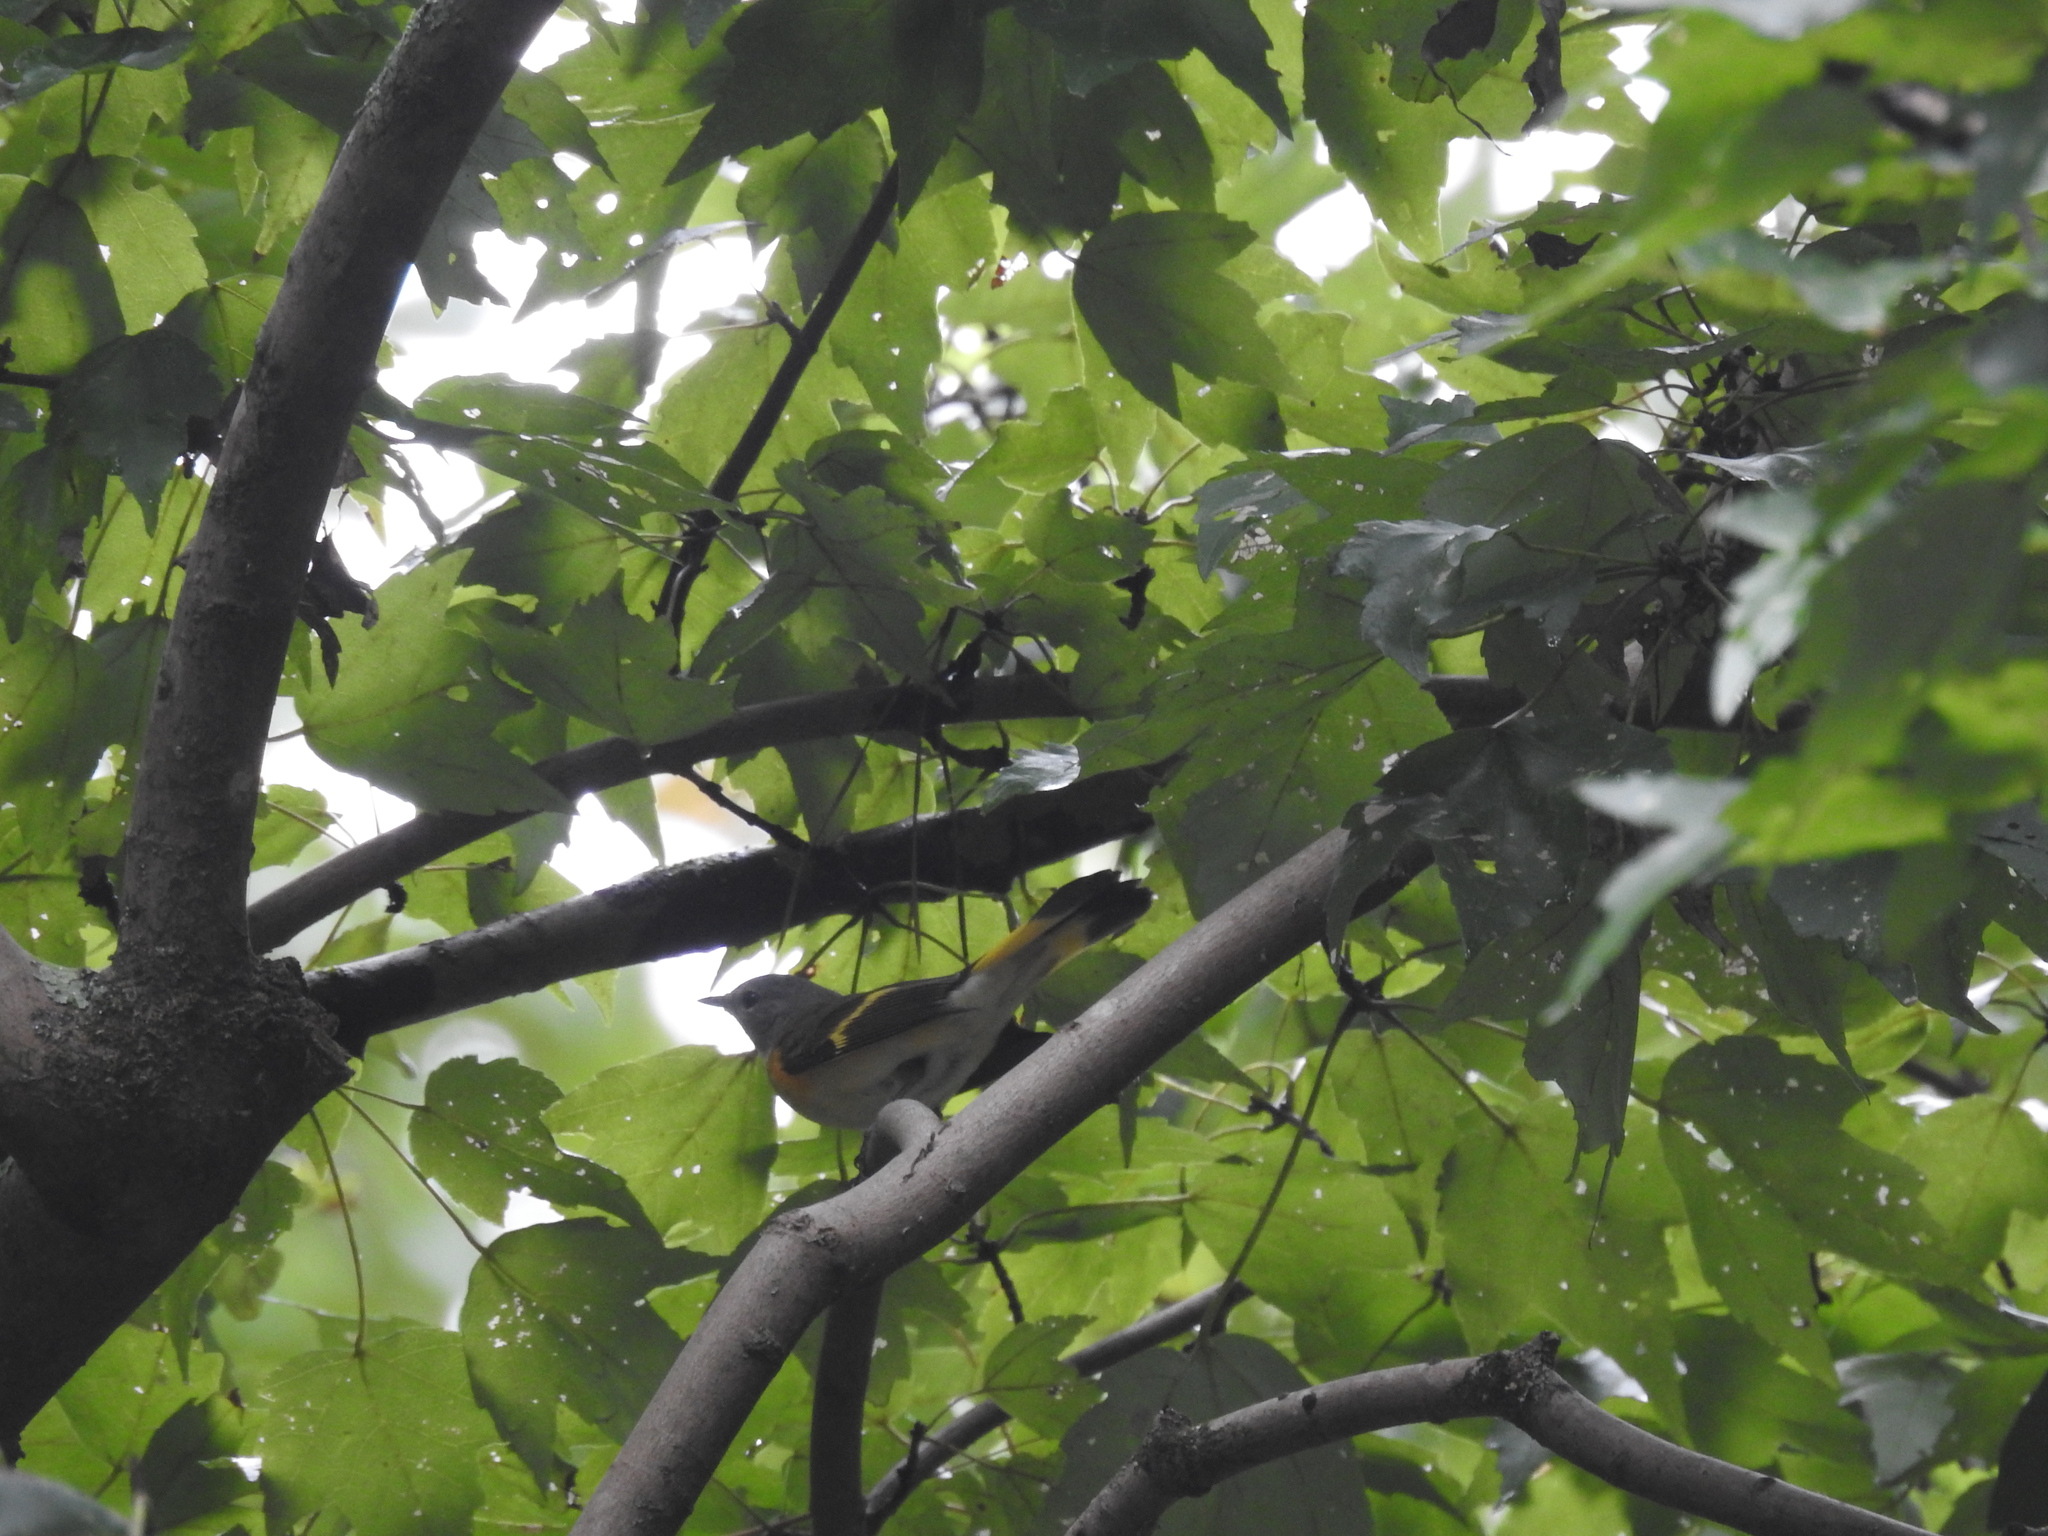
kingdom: Animalia
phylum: Chordata
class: Aves
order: Passeriformes
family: Parulidae
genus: Setophaga
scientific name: Setophaga ruticilla
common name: American redstart
